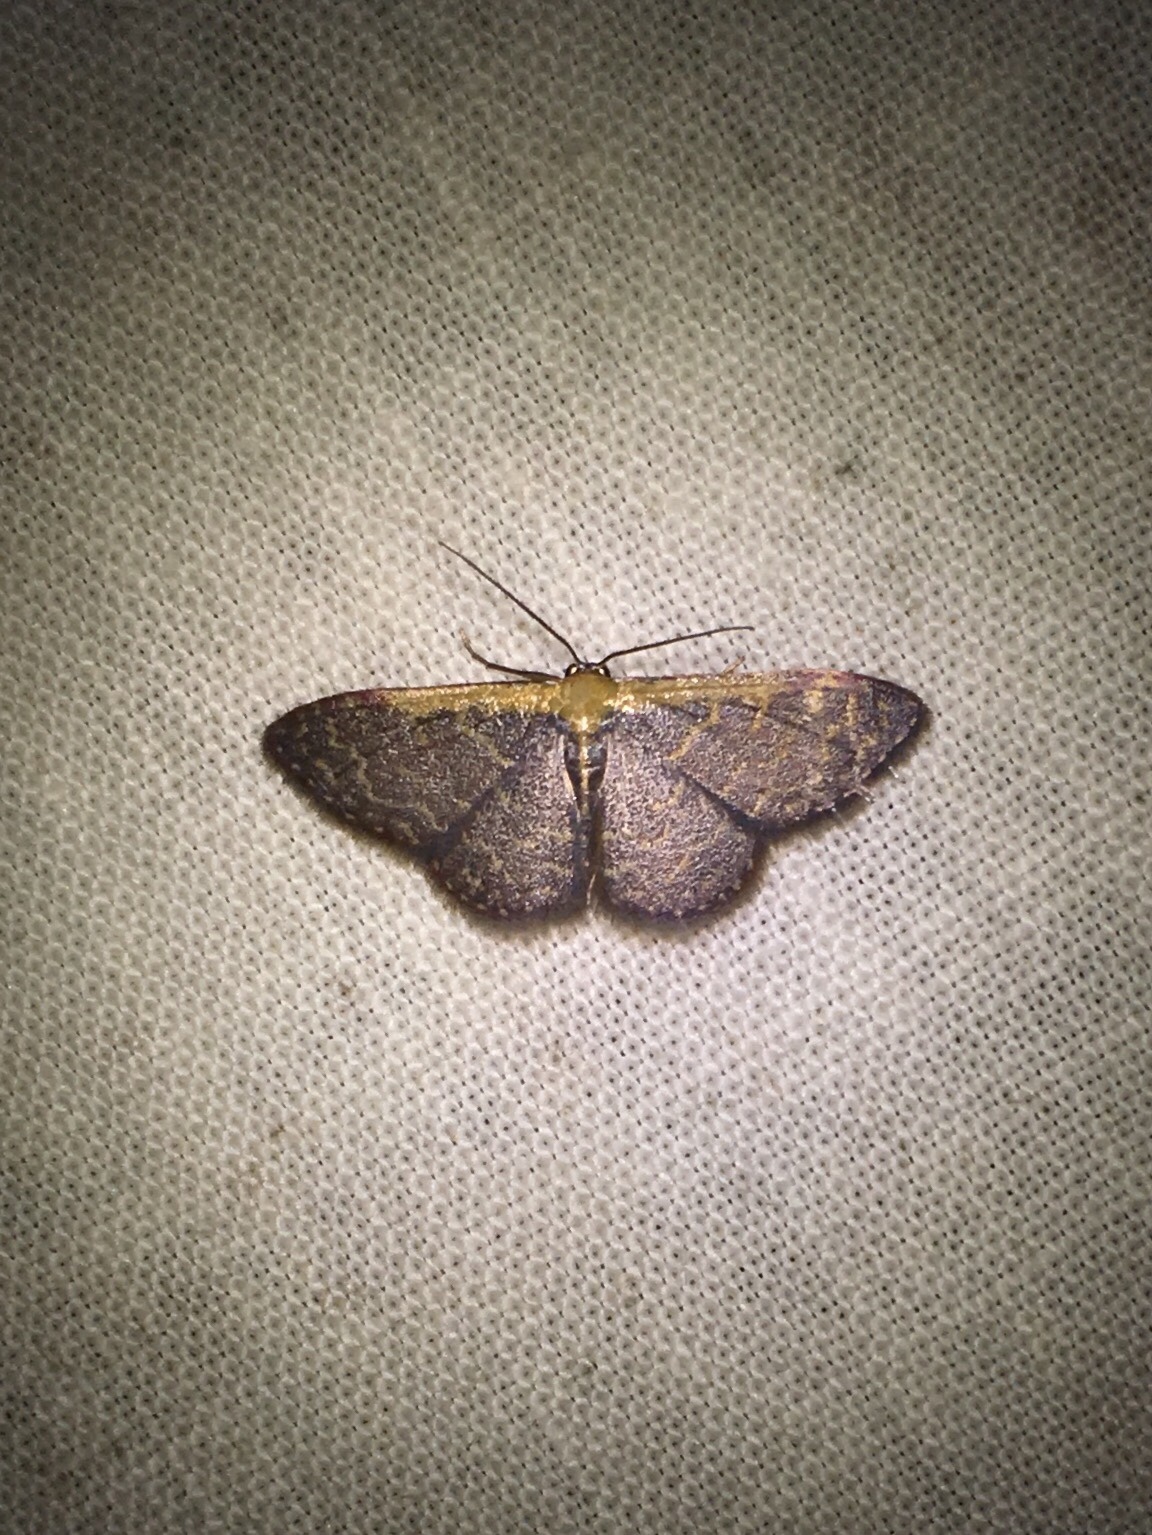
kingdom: Animalia
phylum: Arthropoda
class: Insecta
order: Lepidoptera
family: Geometridae
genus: Leptostales
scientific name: Leptostales crossii
